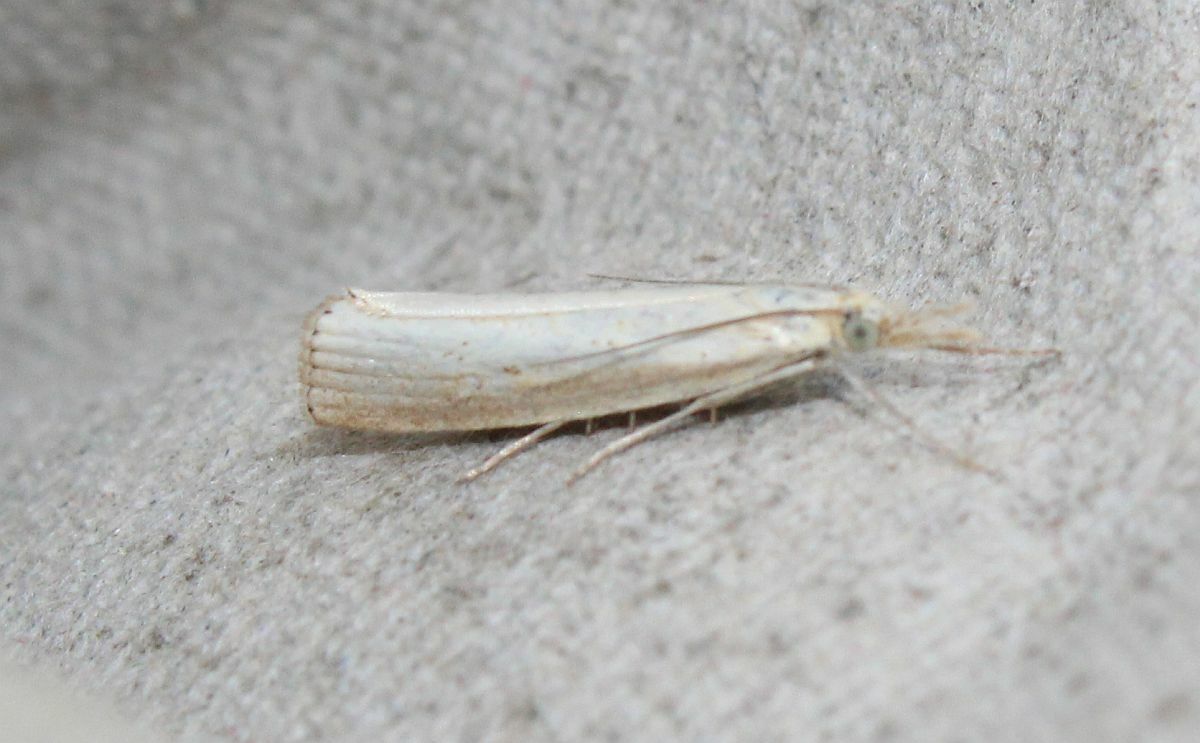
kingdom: Animalia
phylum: Arthropoda
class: Insecta
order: Lepidoptera
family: Crambidae
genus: Agriphila
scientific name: Agriphila straminella
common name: Straw grass-veneer
